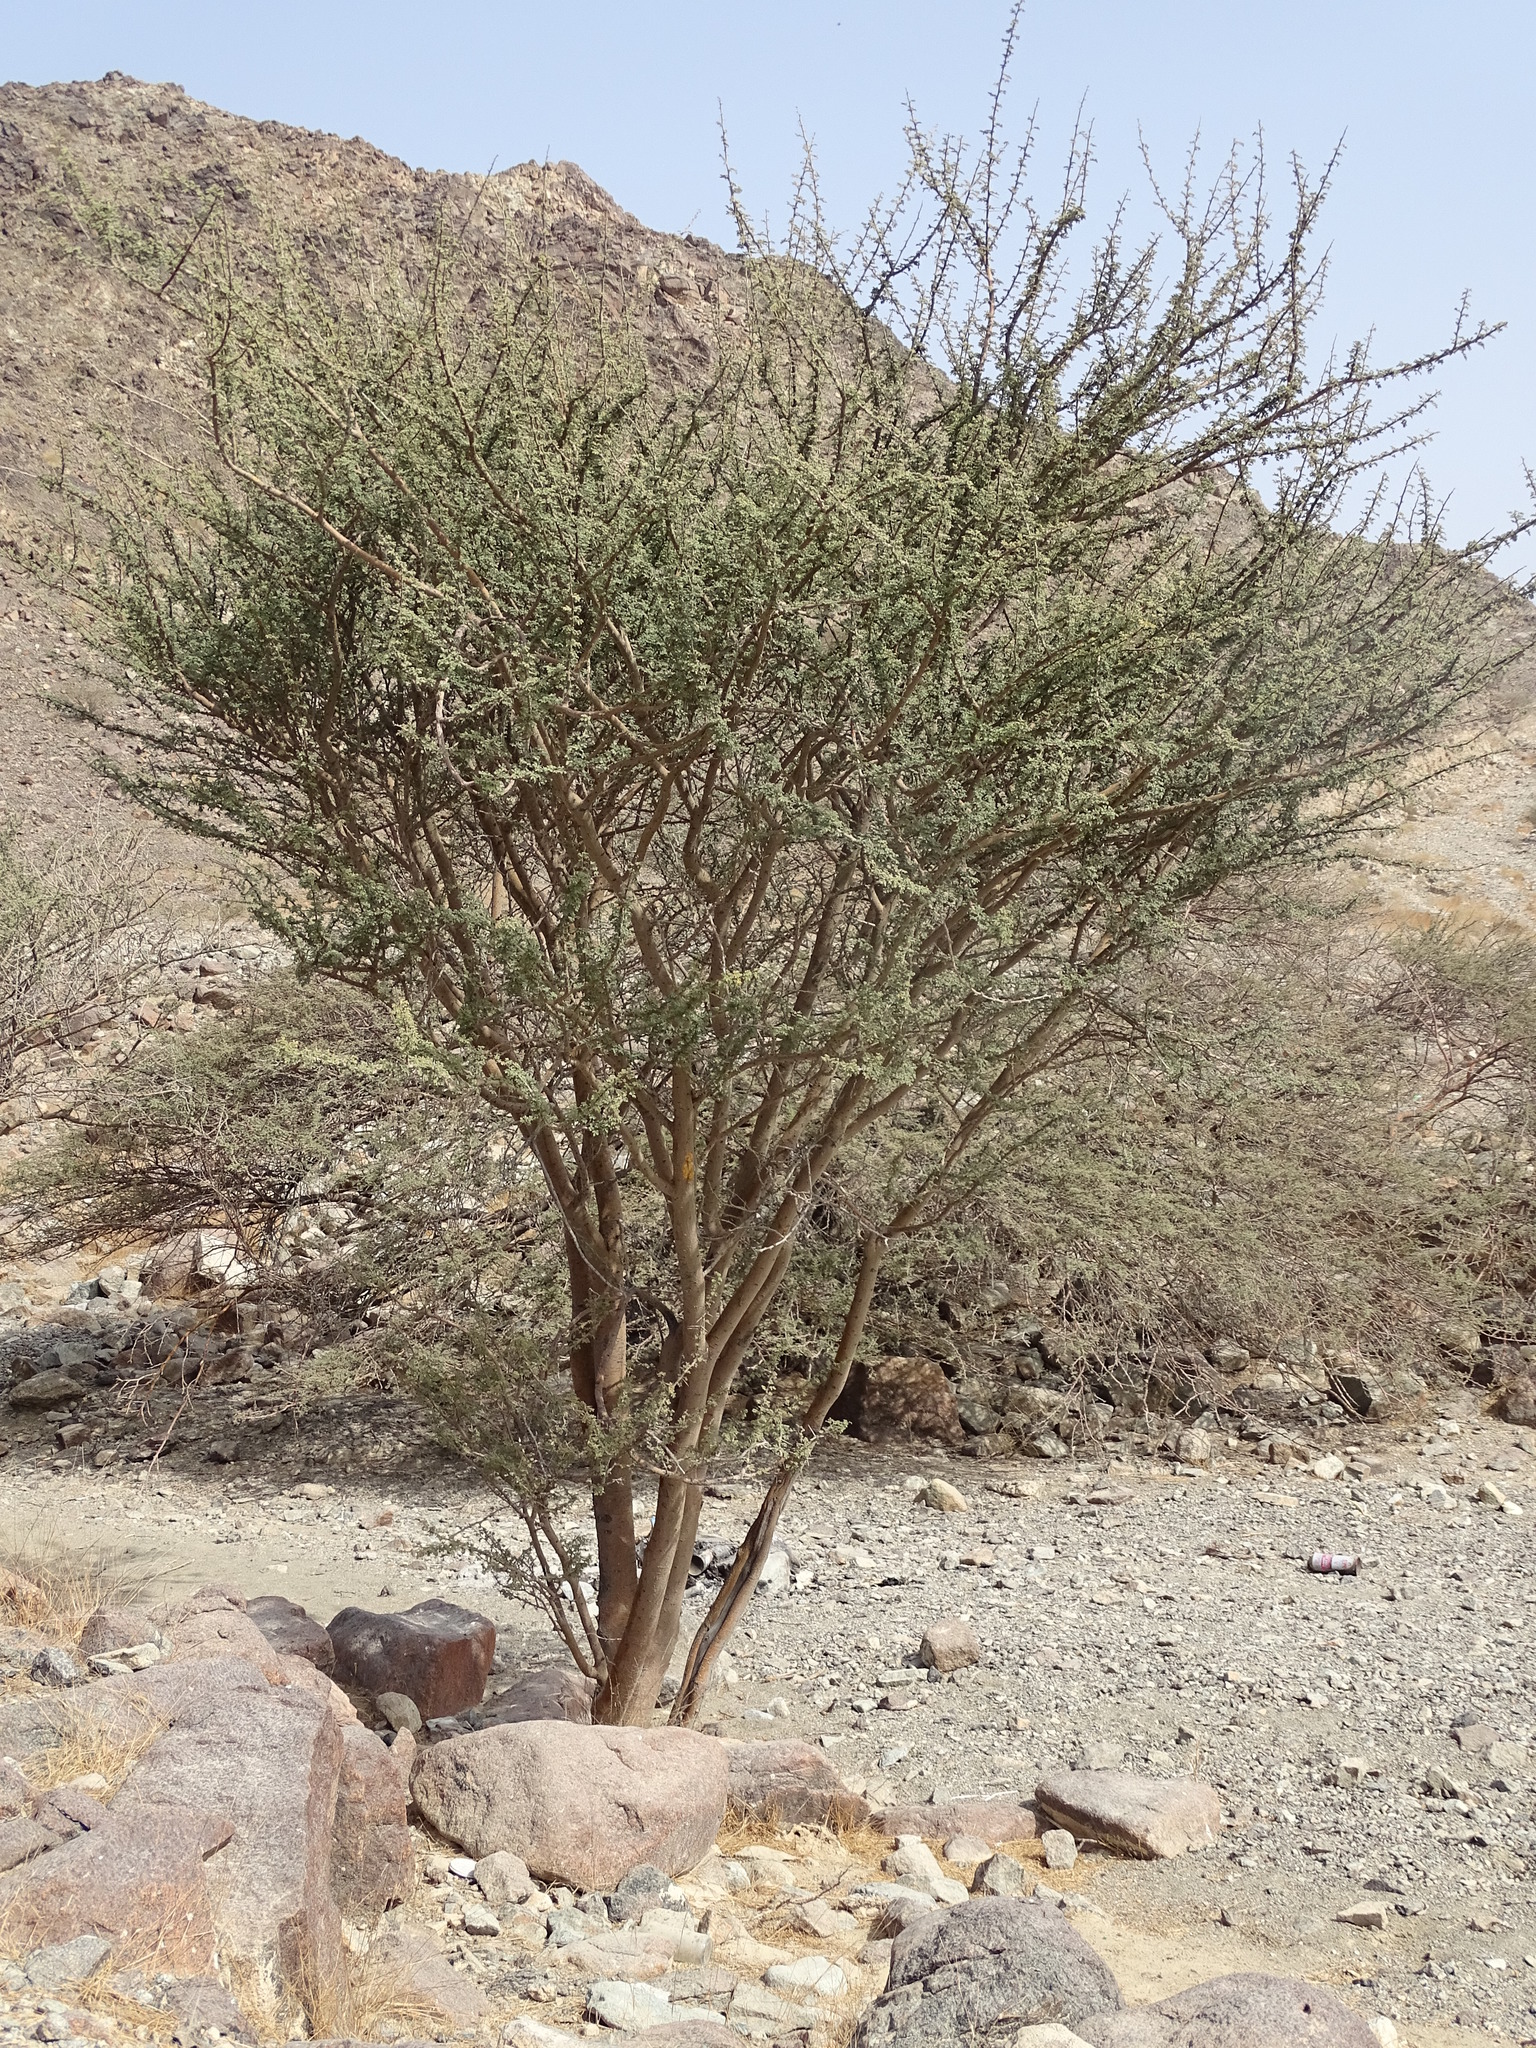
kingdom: Plantae
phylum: Tracheophyta
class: Magnoliopsida
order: Fabales
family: Fabaceae
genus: Vachellia
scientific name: Vachellia tortilis
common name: Umbrella thorn acacia
